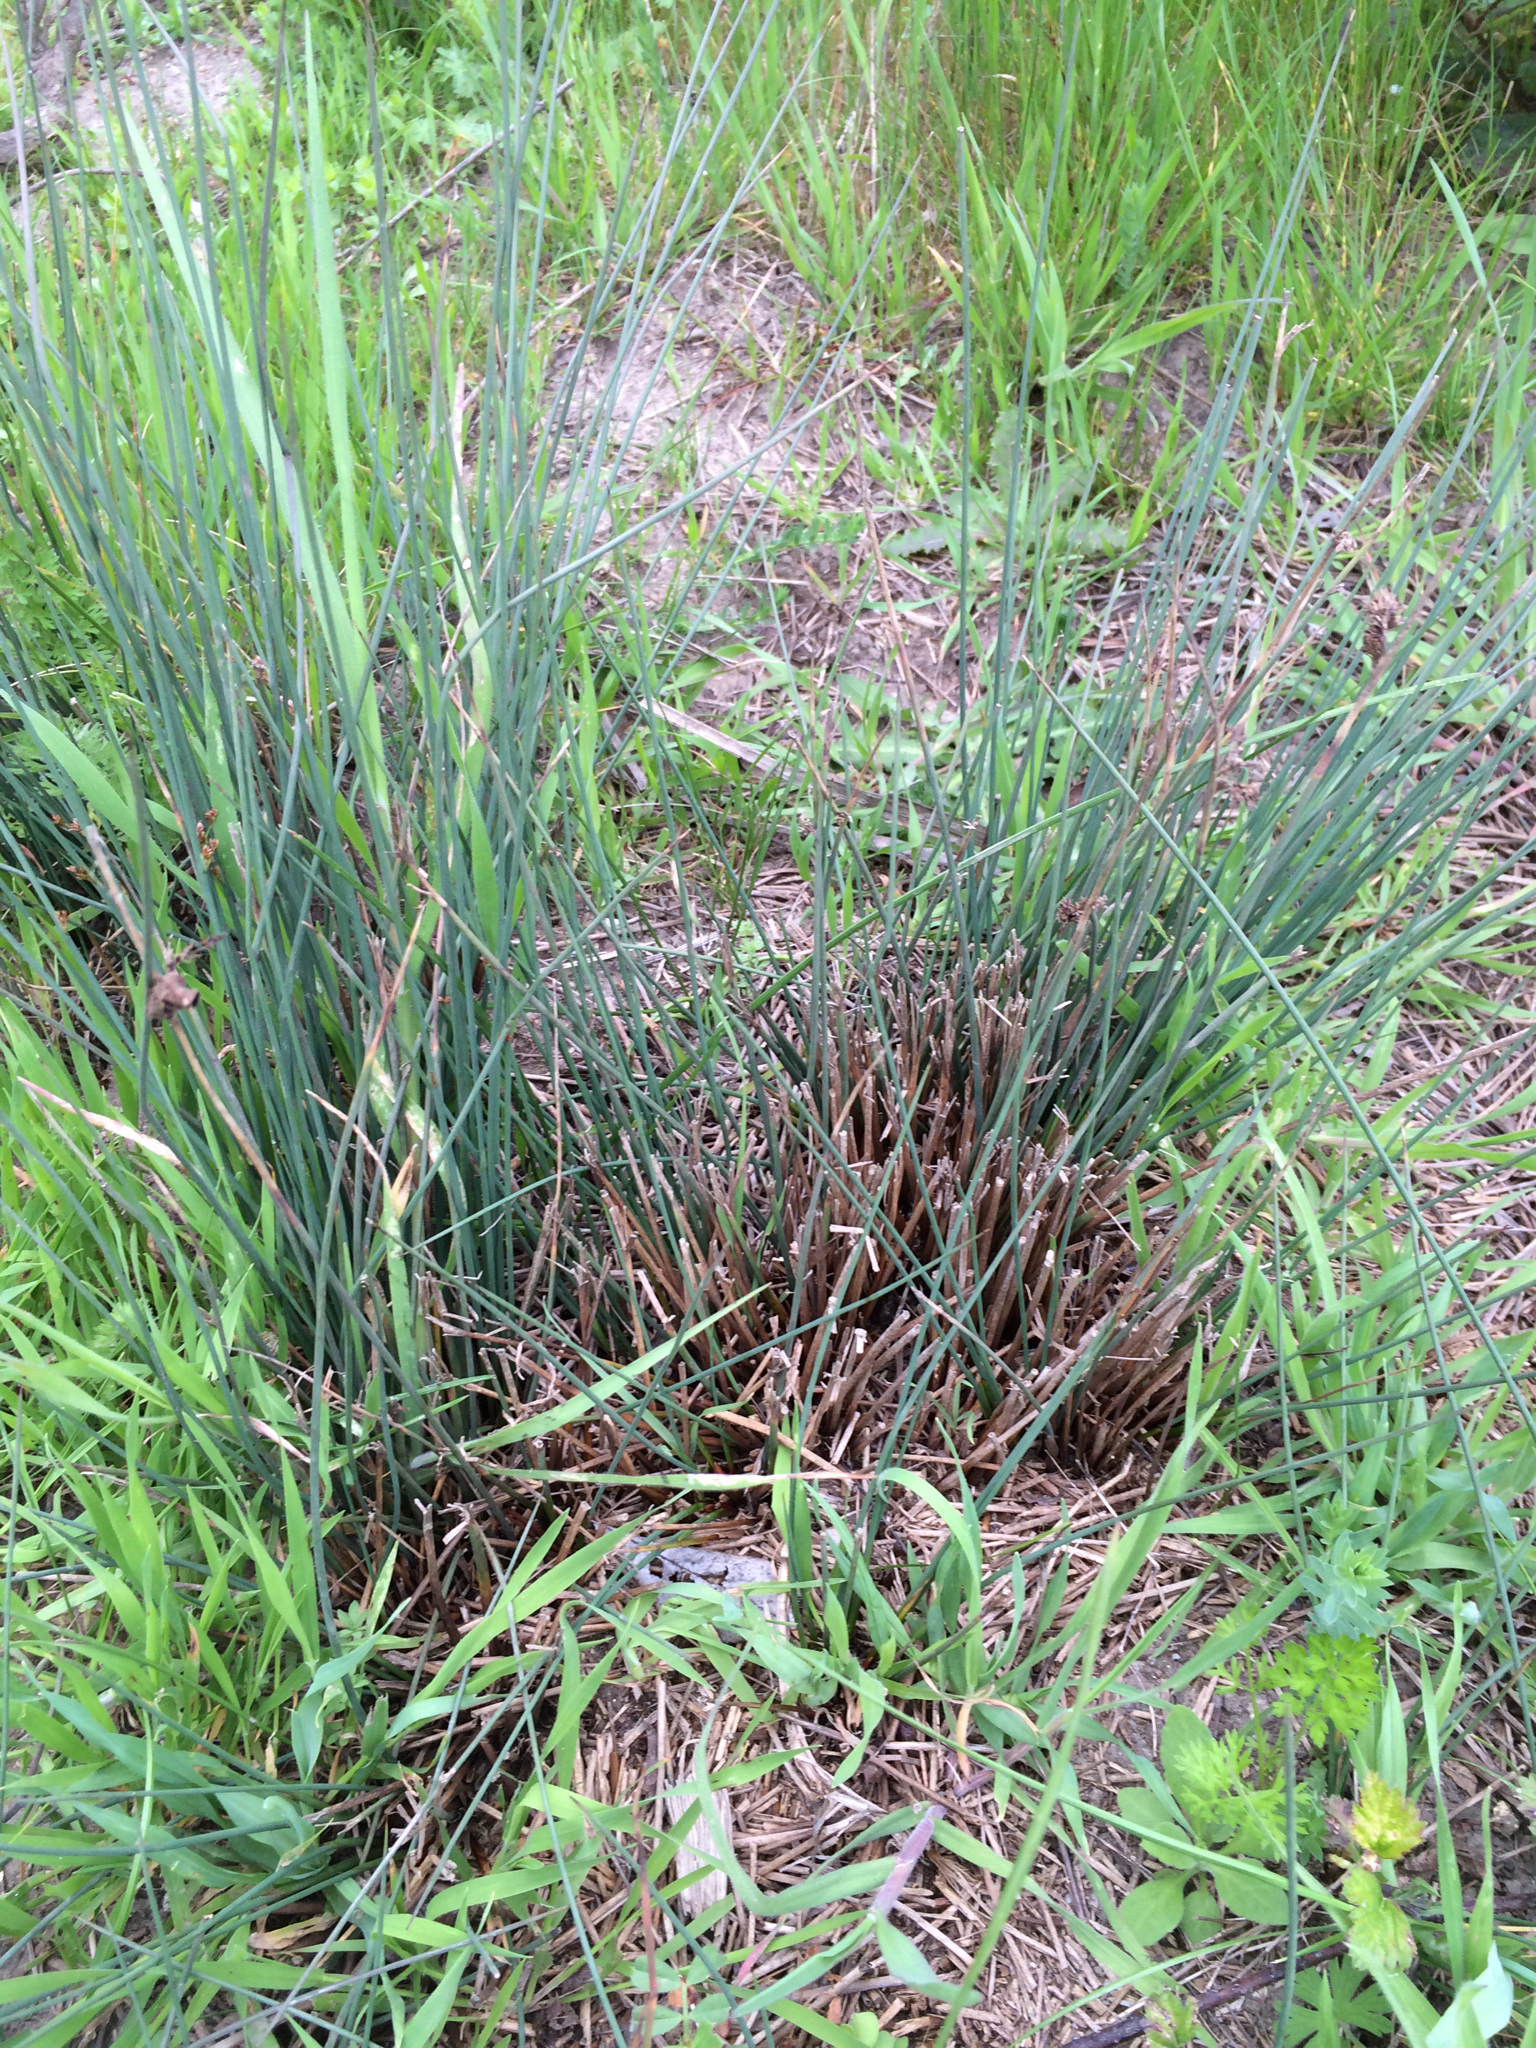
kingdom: Plantae
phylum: Tracheophyta
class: Liliopsida
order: Poales
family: Juncaceae
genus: Juncus
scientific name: Juncus patens
